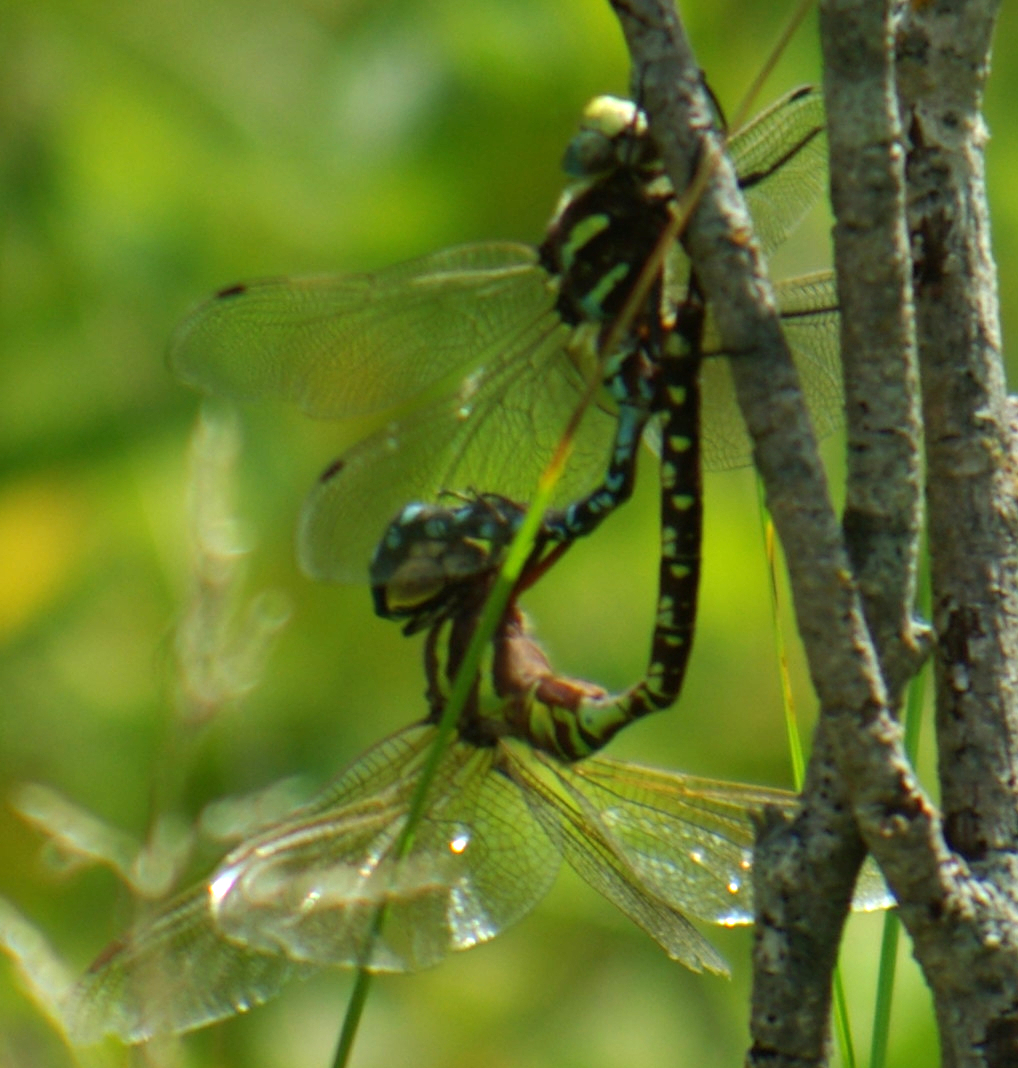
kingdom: Animalia
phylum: Arthropoda
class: Insecta
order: Odonata
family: Aeshnidae
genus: Aeshna
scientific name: Aeshna constricta
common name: Lance-tipped darner
